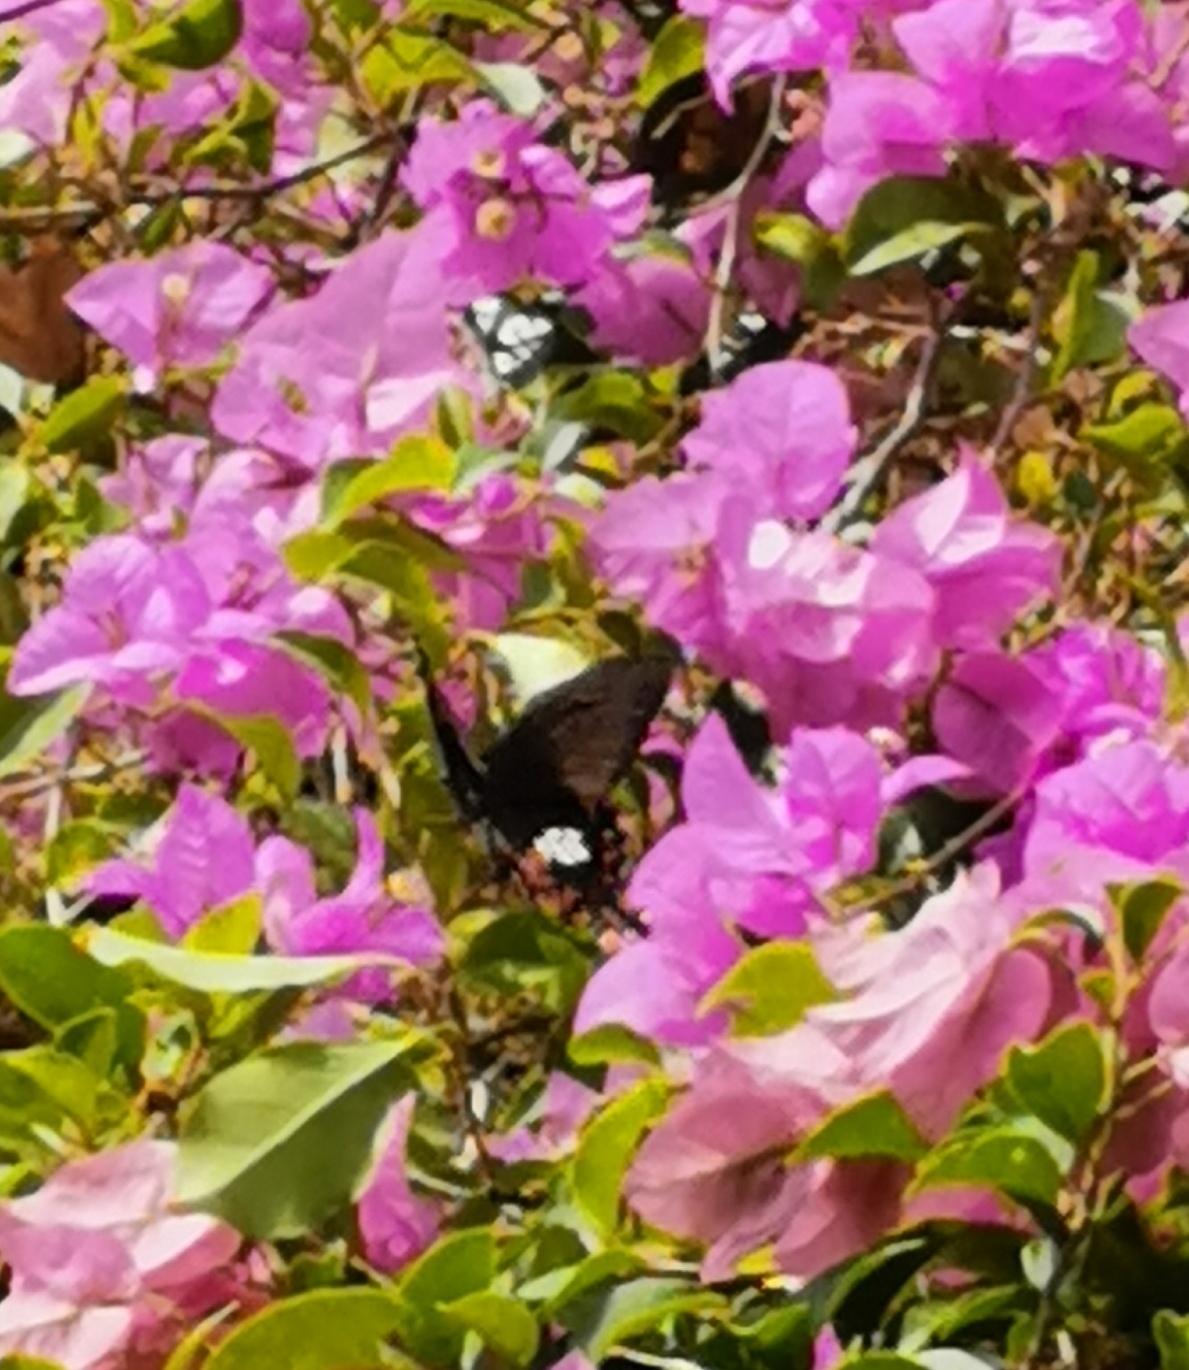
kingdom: Animalia
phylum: Arthropoda
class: Insecta
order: Lepidoptera
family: Papilionidae
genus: Papilio
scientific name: Papilio polytes
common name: Common mormon
